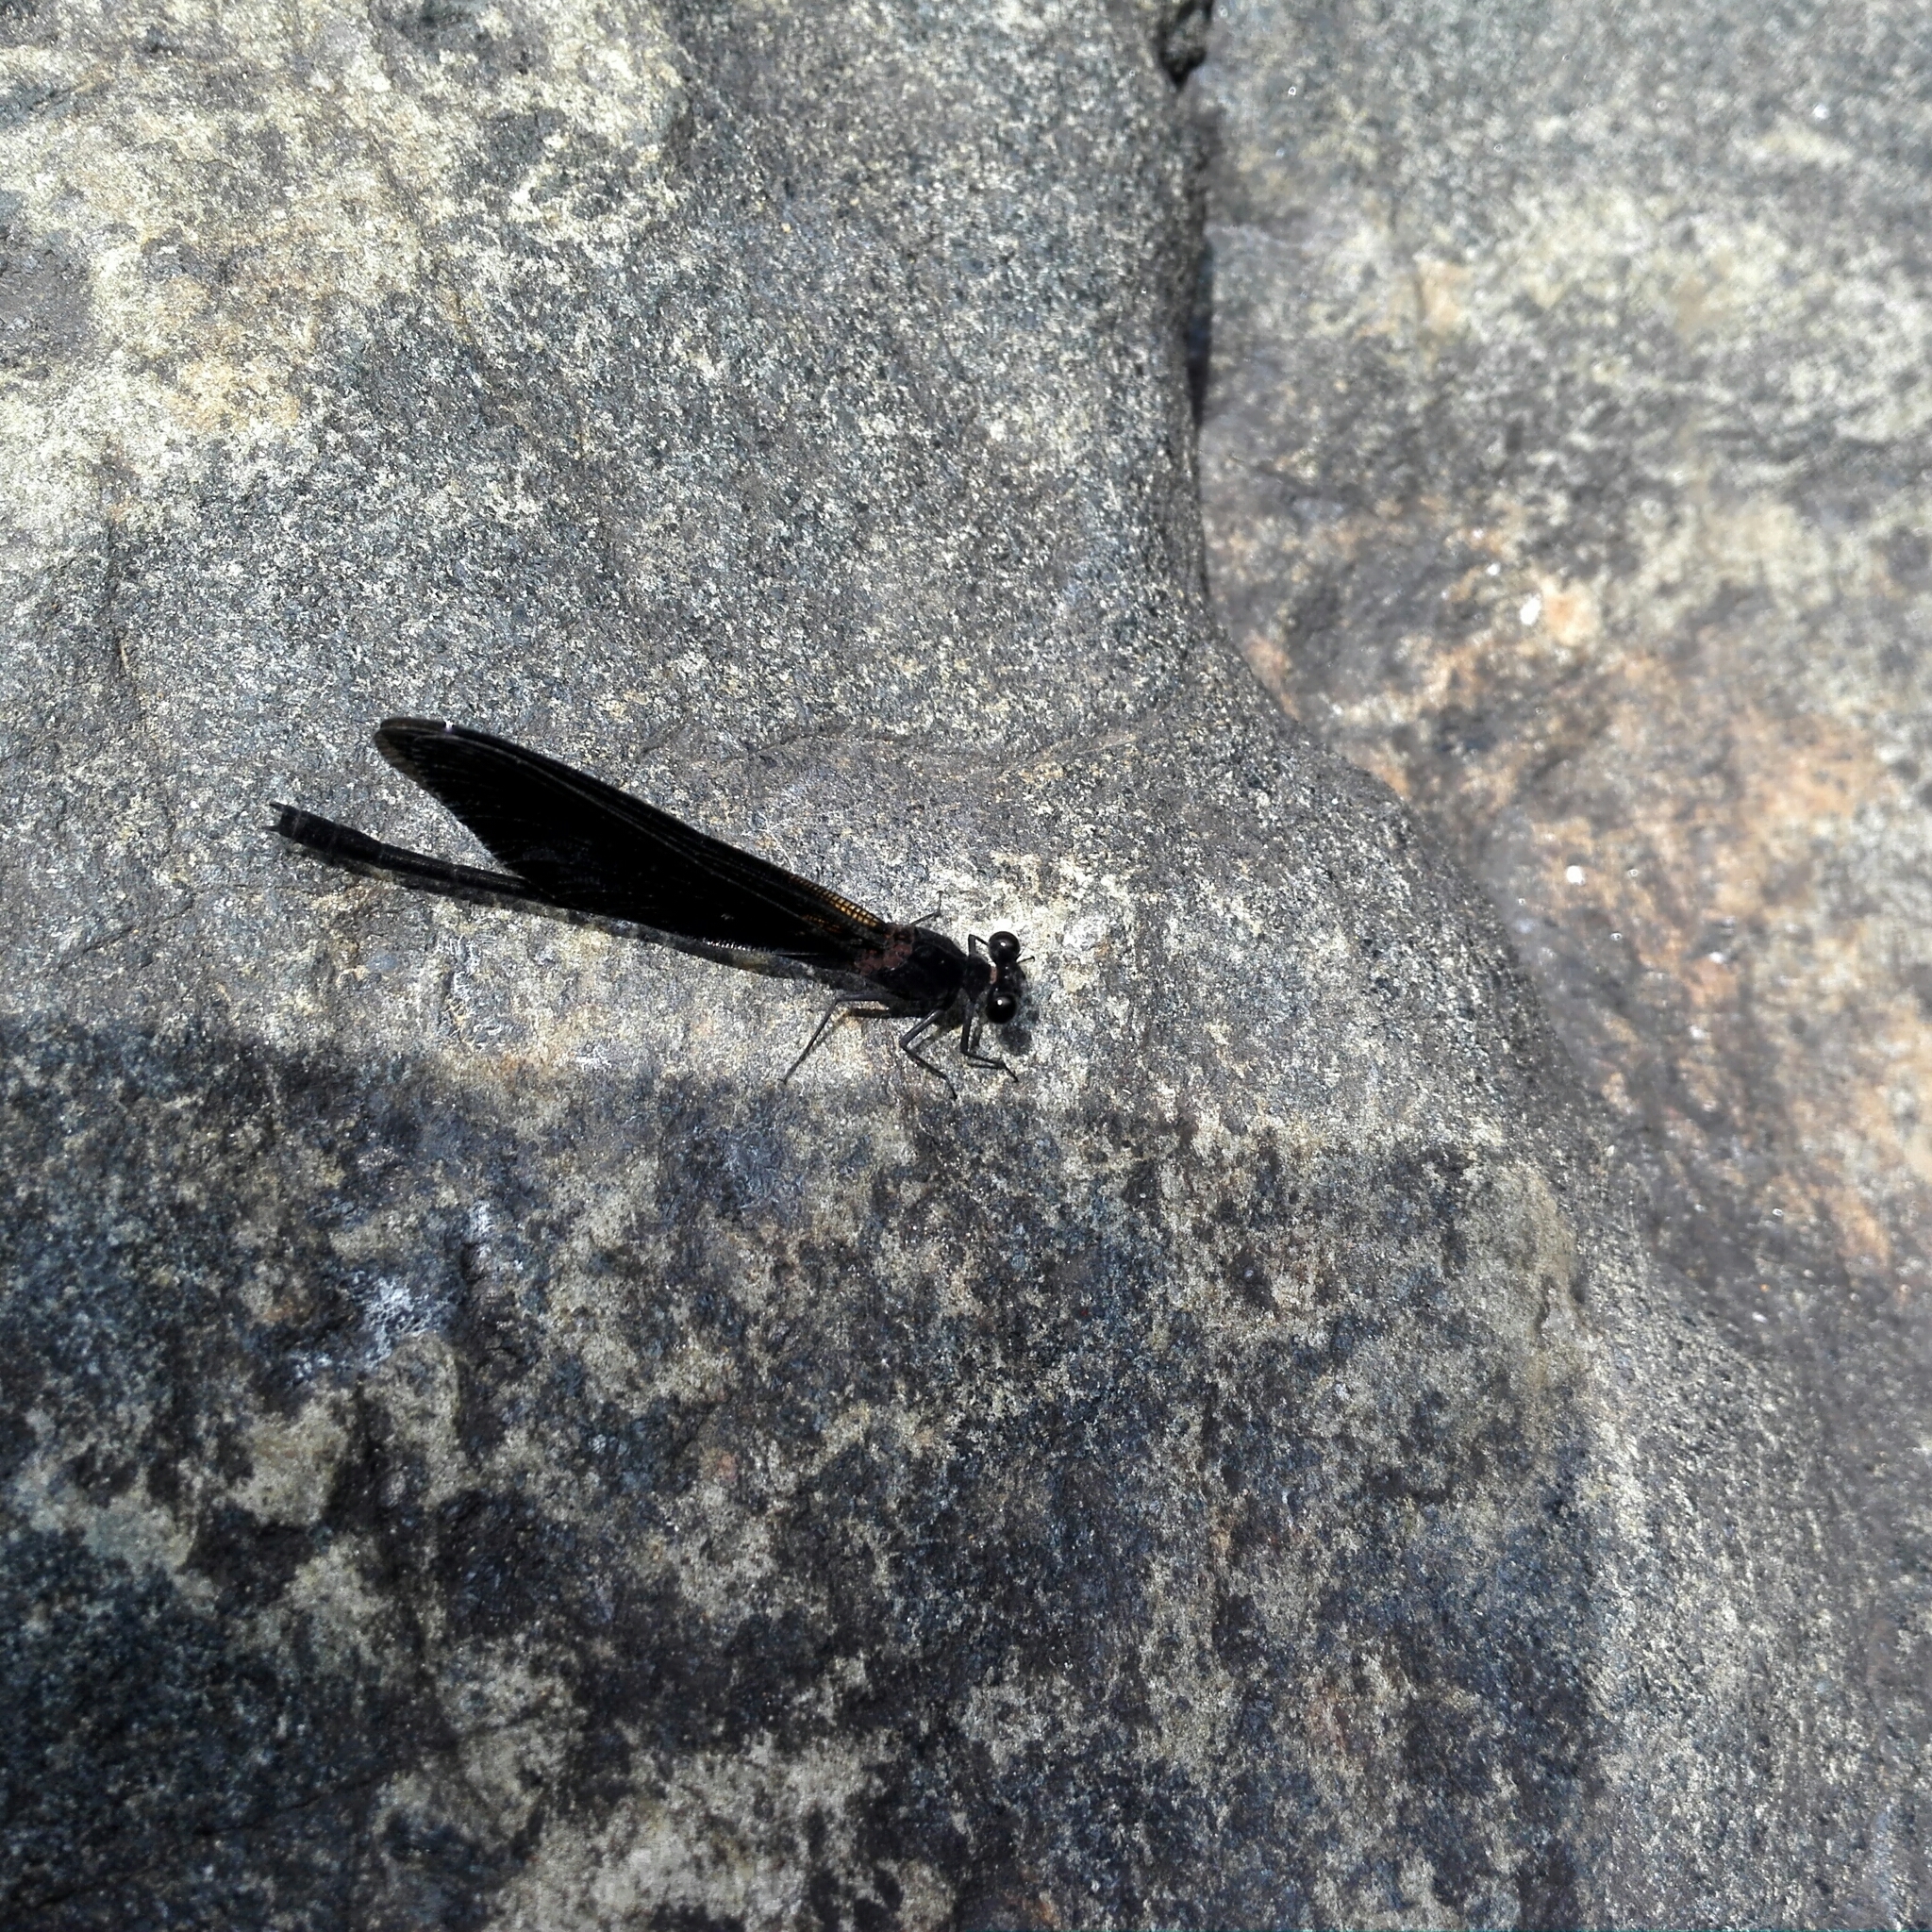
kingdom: Animalia
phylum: Arthropoda
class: Insecta
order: Odonata
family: Euphaeidae
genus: Euphaea
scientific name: Euphaea splendens
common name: Shining gossamerwing
